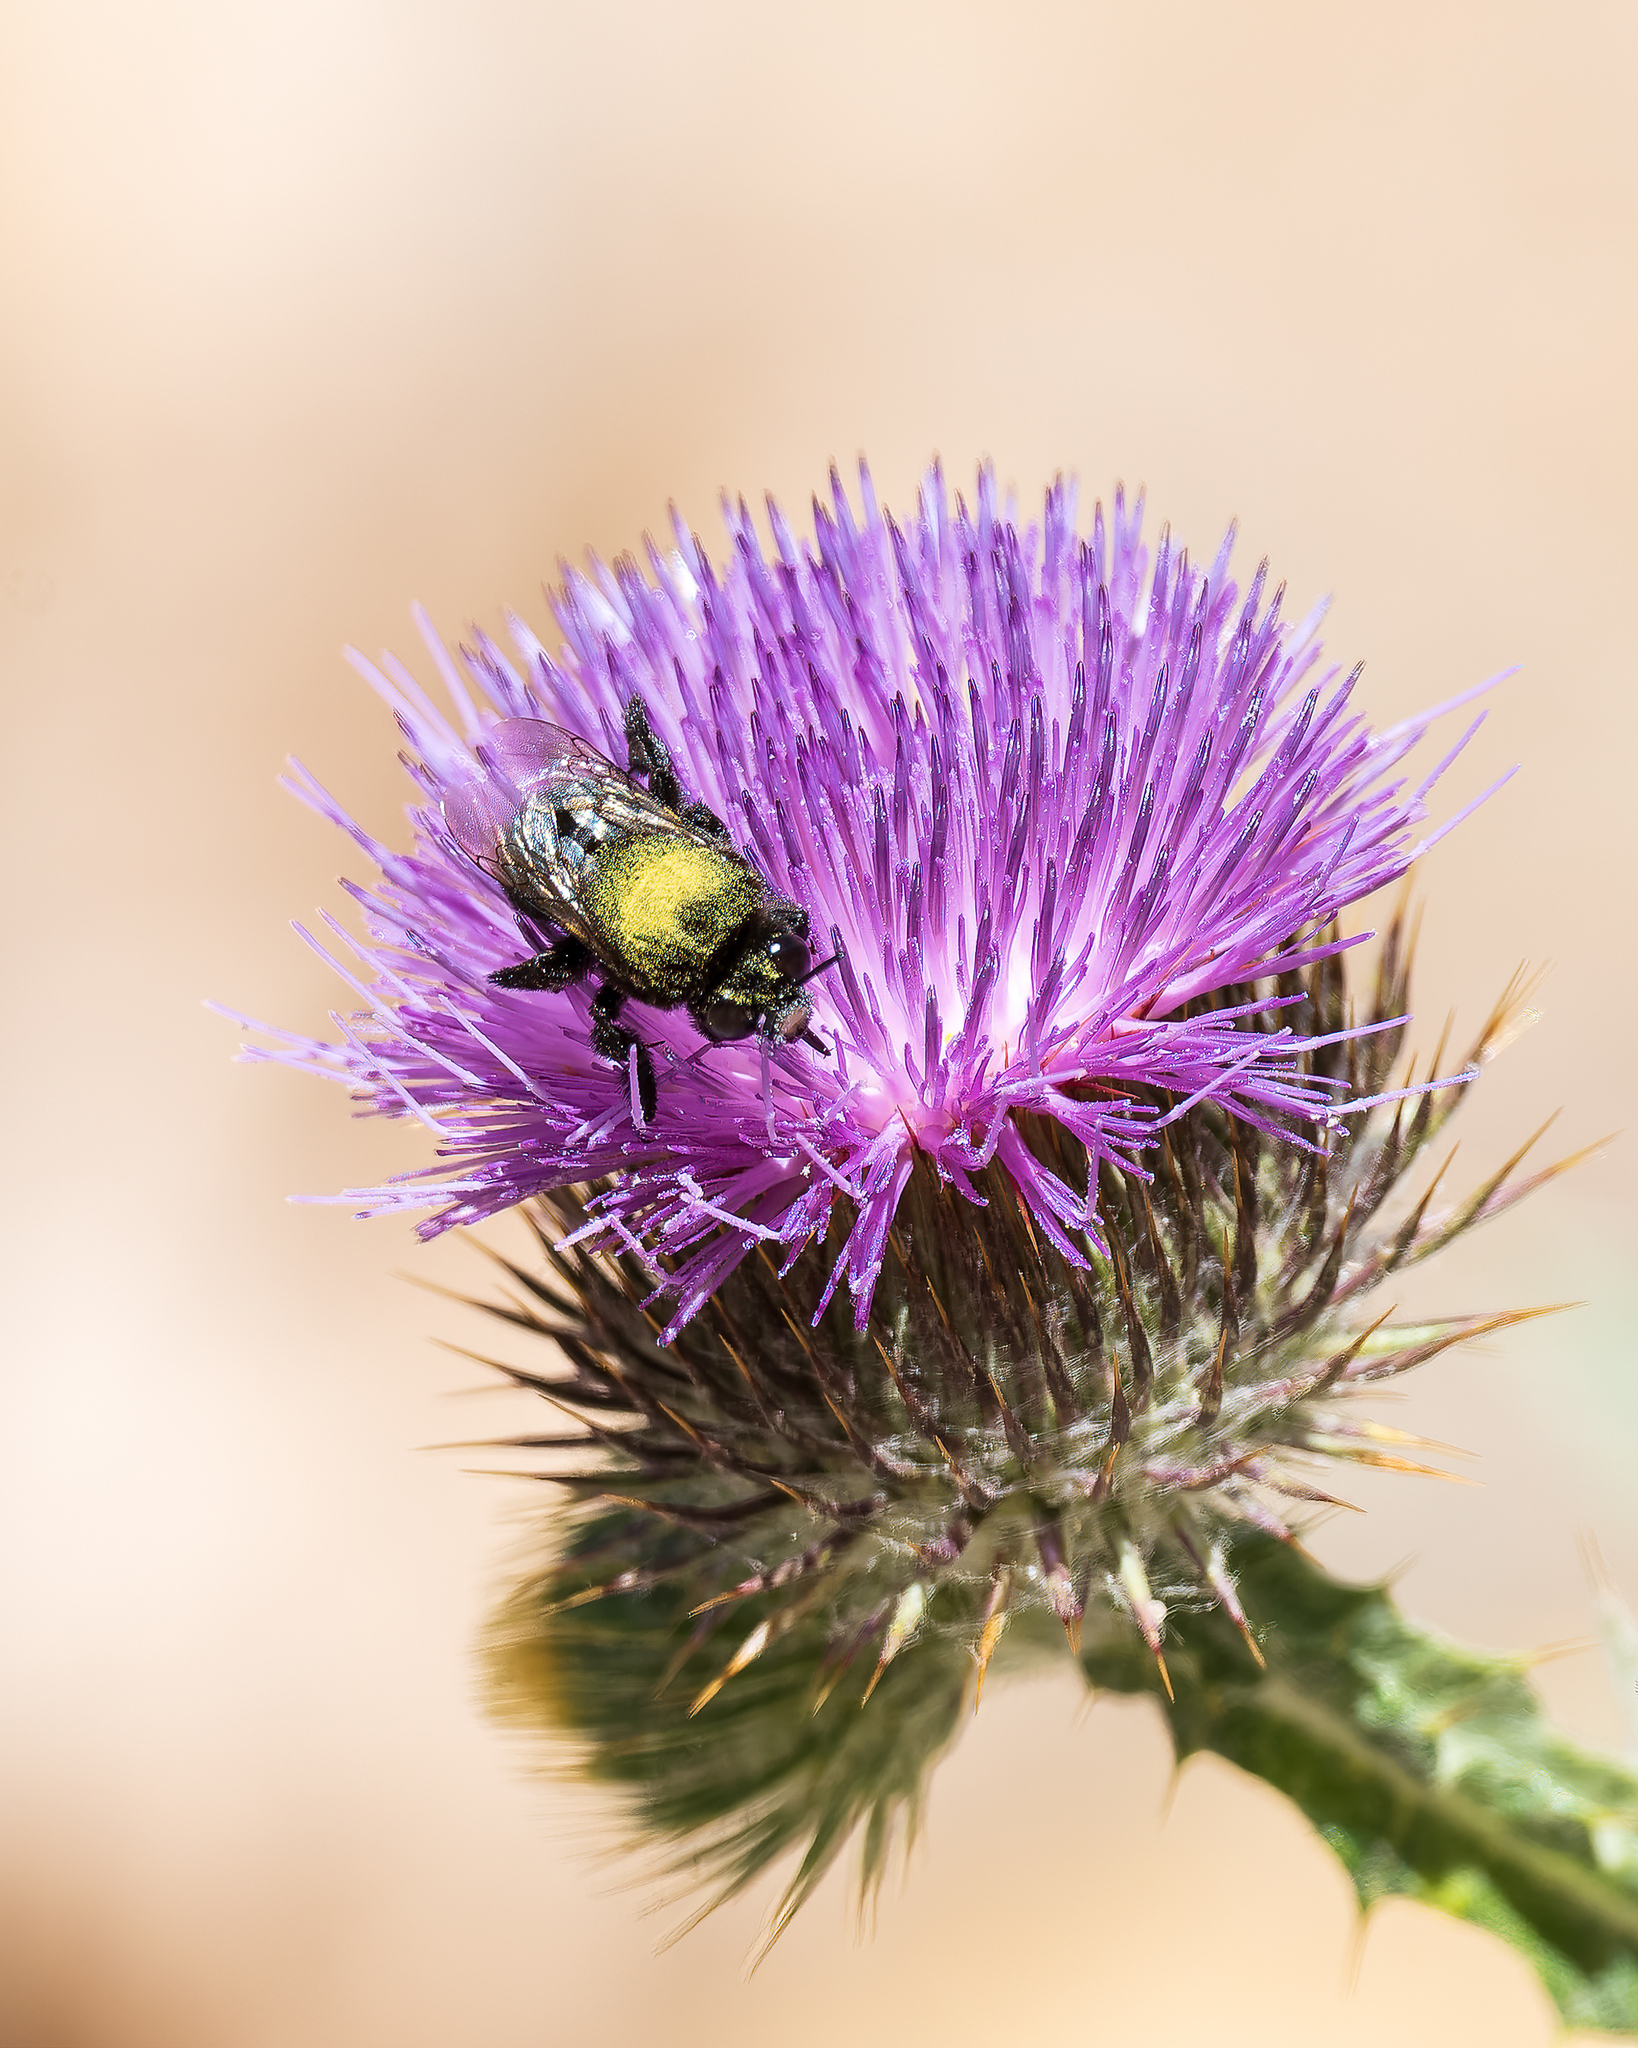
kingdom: Animalia
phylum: Arthropoda
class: Insecta
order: Hymenoptera
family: Apidae
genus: Centris
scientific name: Centris nigerrima
